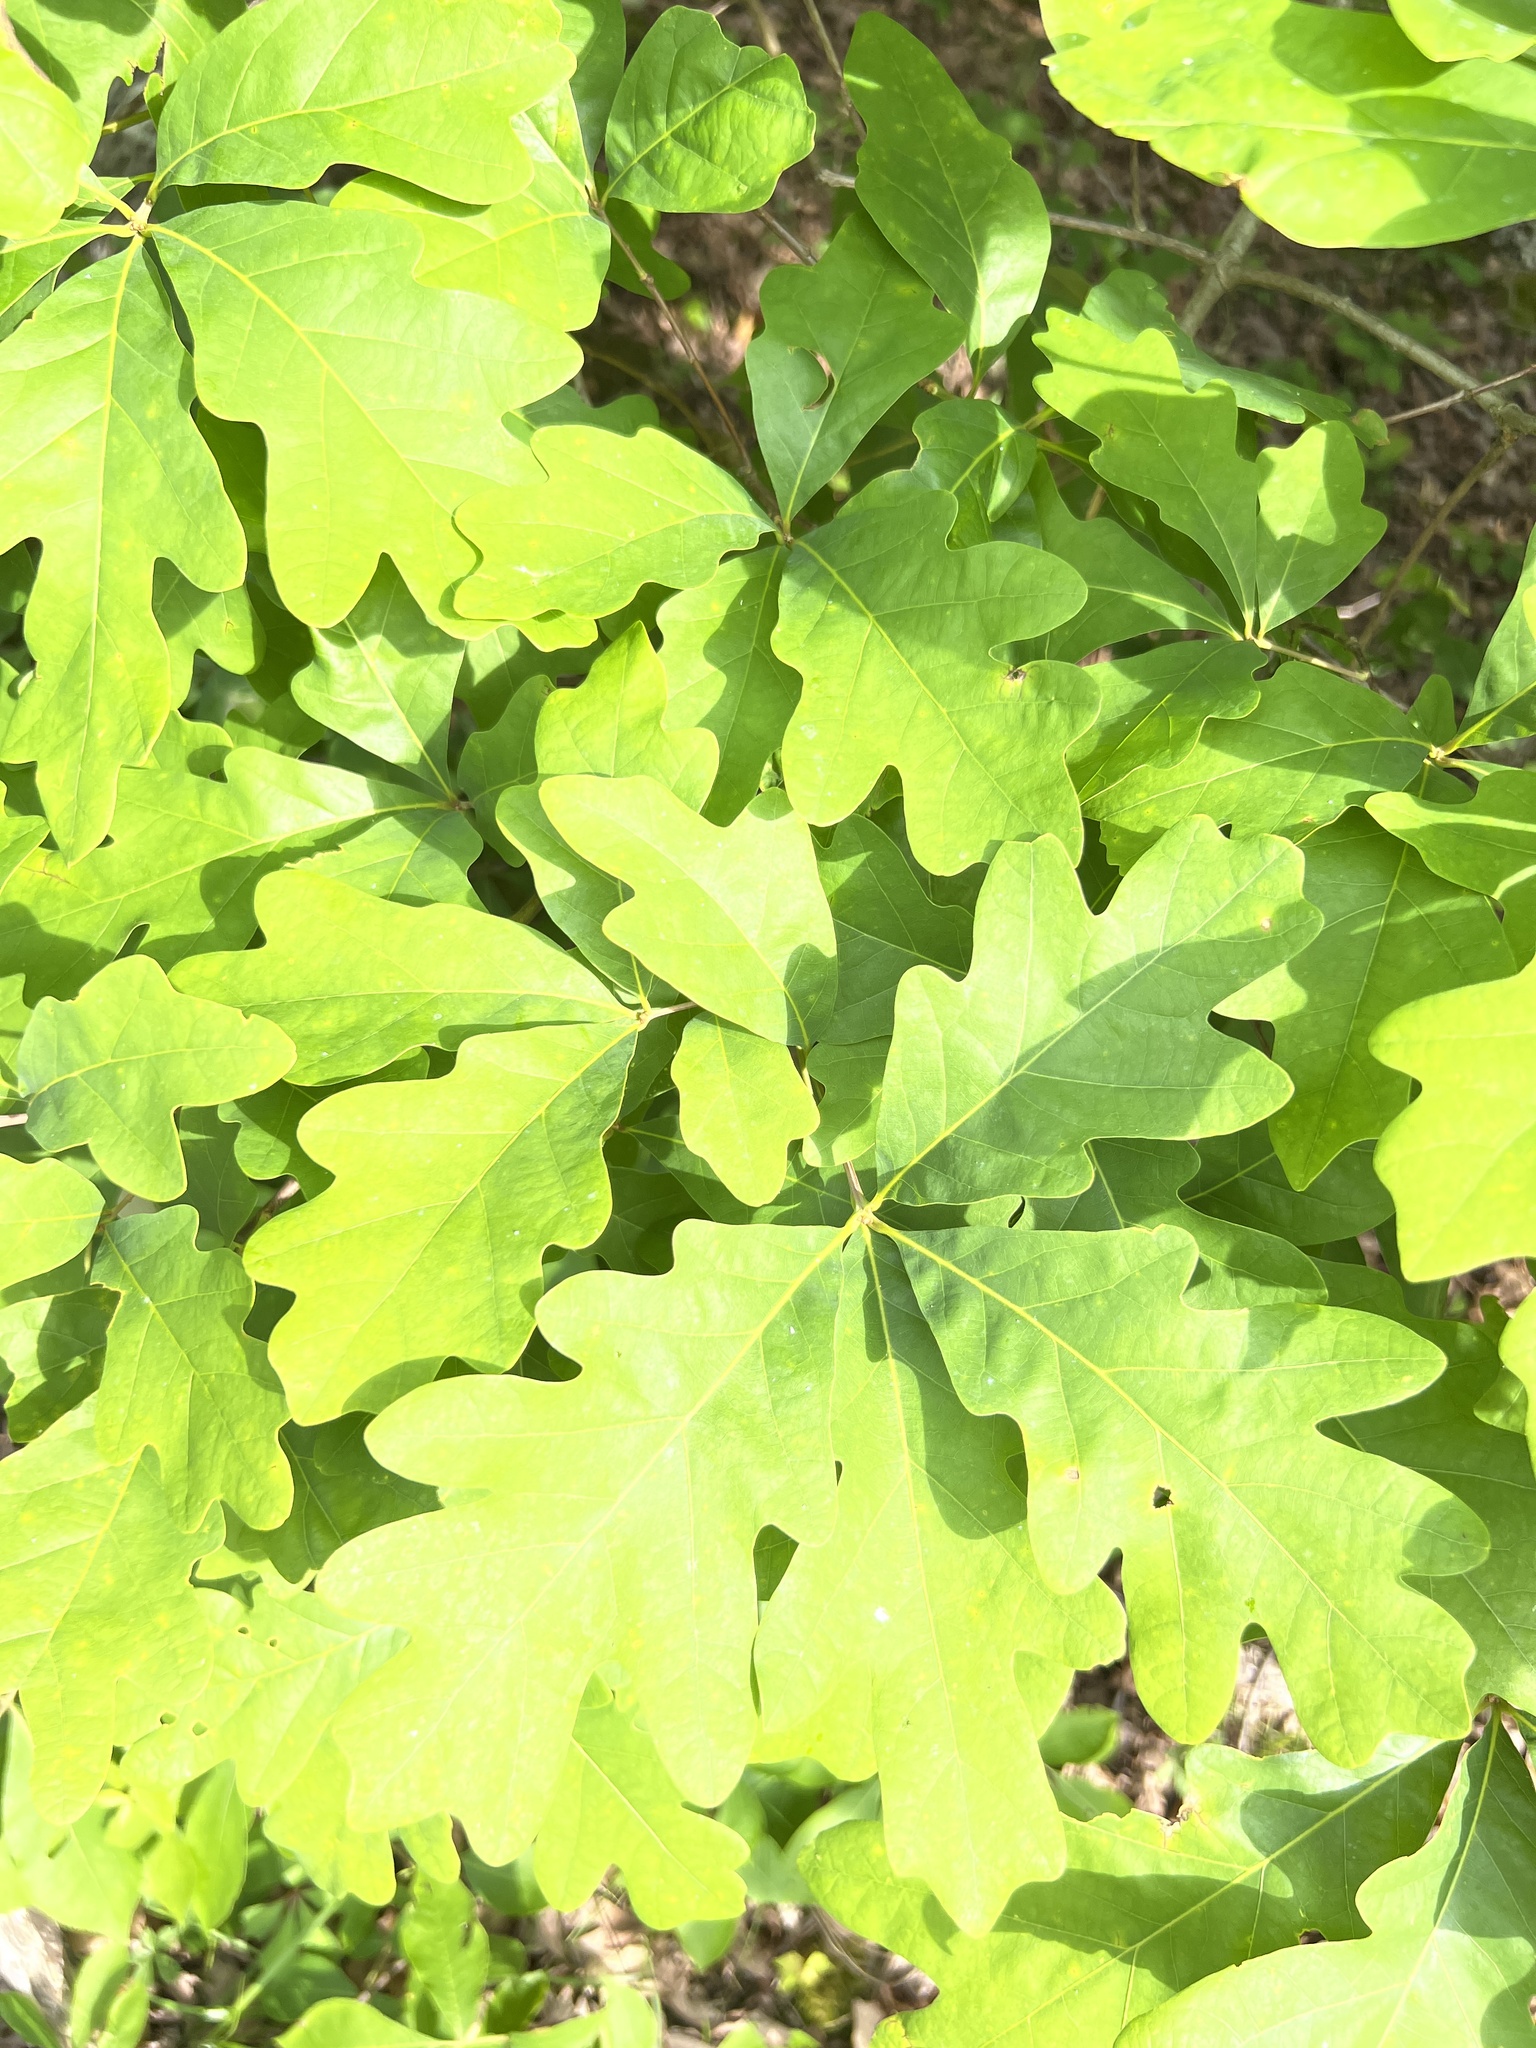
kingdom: Plantae
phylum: Tracheophyta
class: Magnoliopsida
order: Fagales
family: Fagaceae
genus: Quercus
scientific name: Quercus alba
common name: White oak
